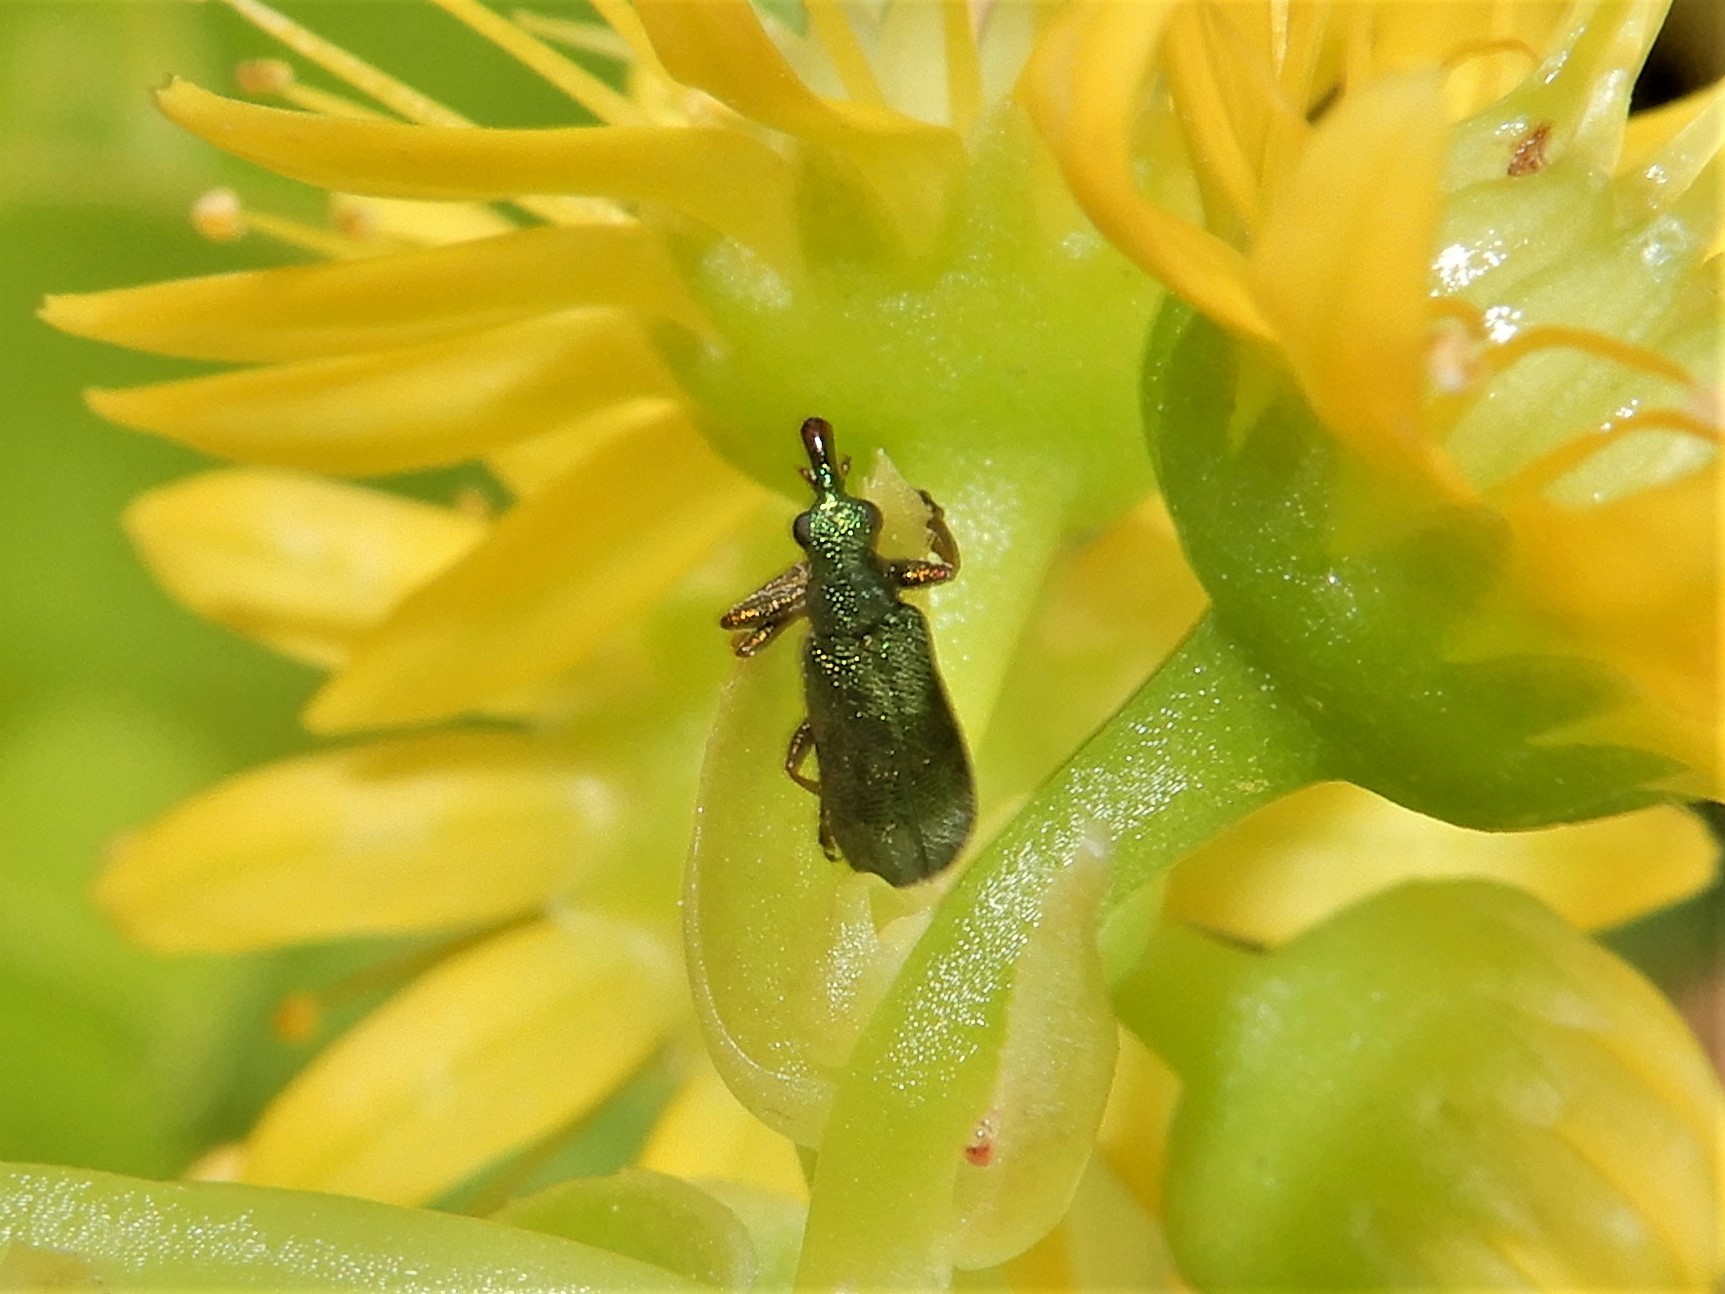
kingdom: Animalia
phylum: Arthropoda
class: Insecta
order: Coleoptera
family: Belidae
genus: Rhicnobelus
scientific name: Rhicnobelus
